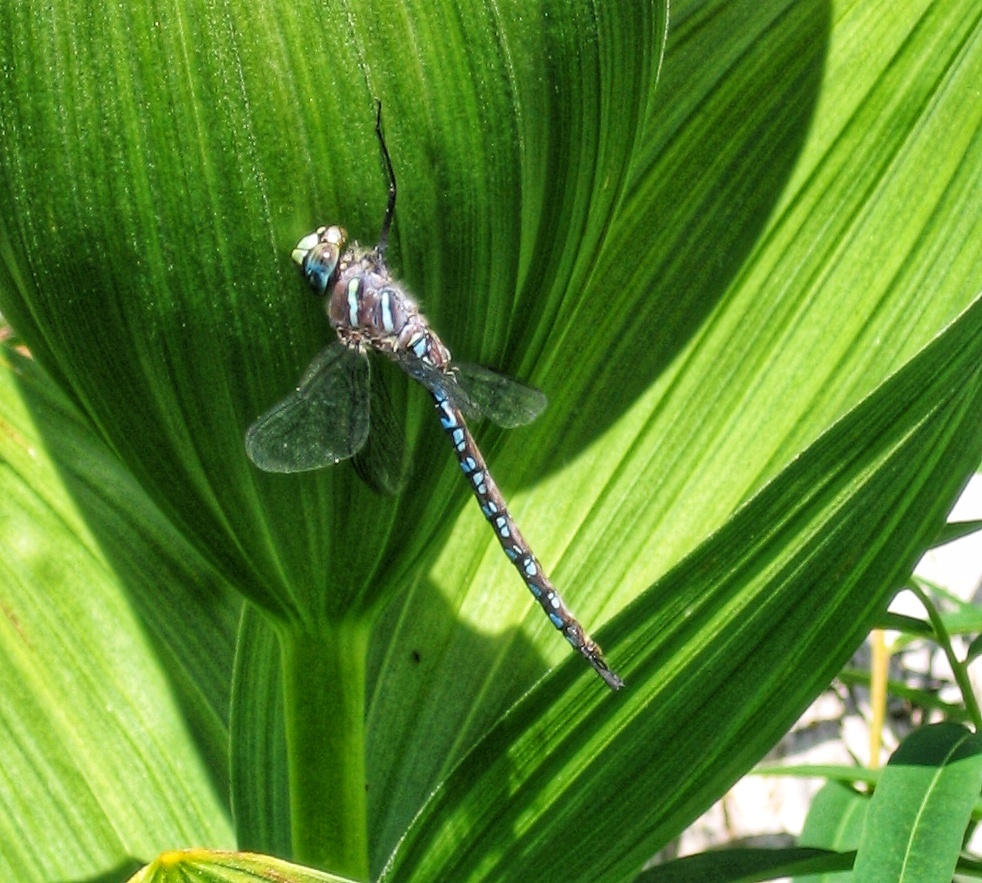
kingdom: Animalia
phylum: Arthropoda
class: Insecta
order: Odonata
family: Aeshnidae
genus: Aeshna
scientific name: Aeshna palmata
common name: Paddle-tailed darner
